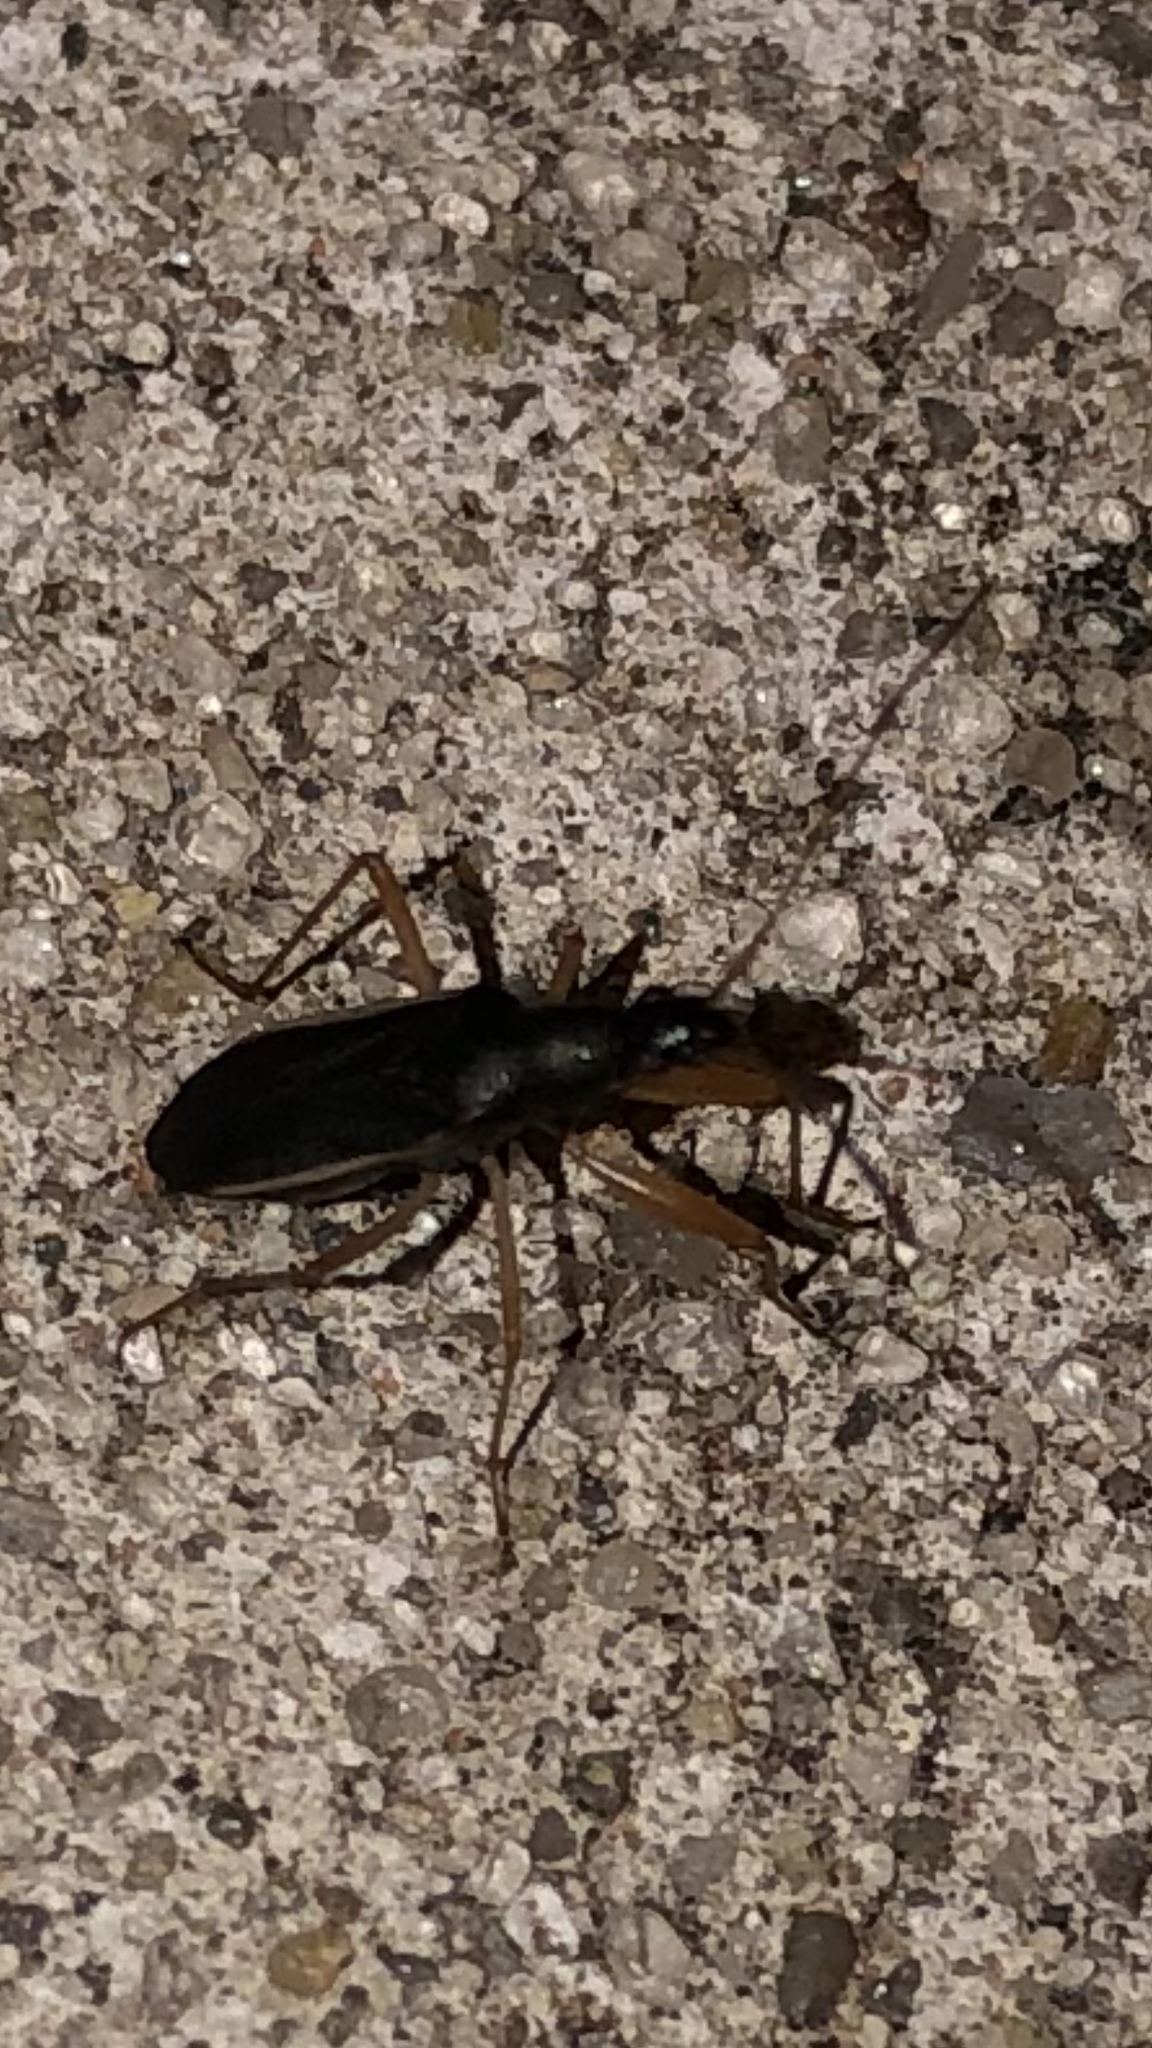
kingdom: Animalia
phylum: Arthropoda
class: Insecta
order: Hemiptera
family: Rhyparochromidae
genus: Cnemodus
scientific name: Cnemodus mavortius
